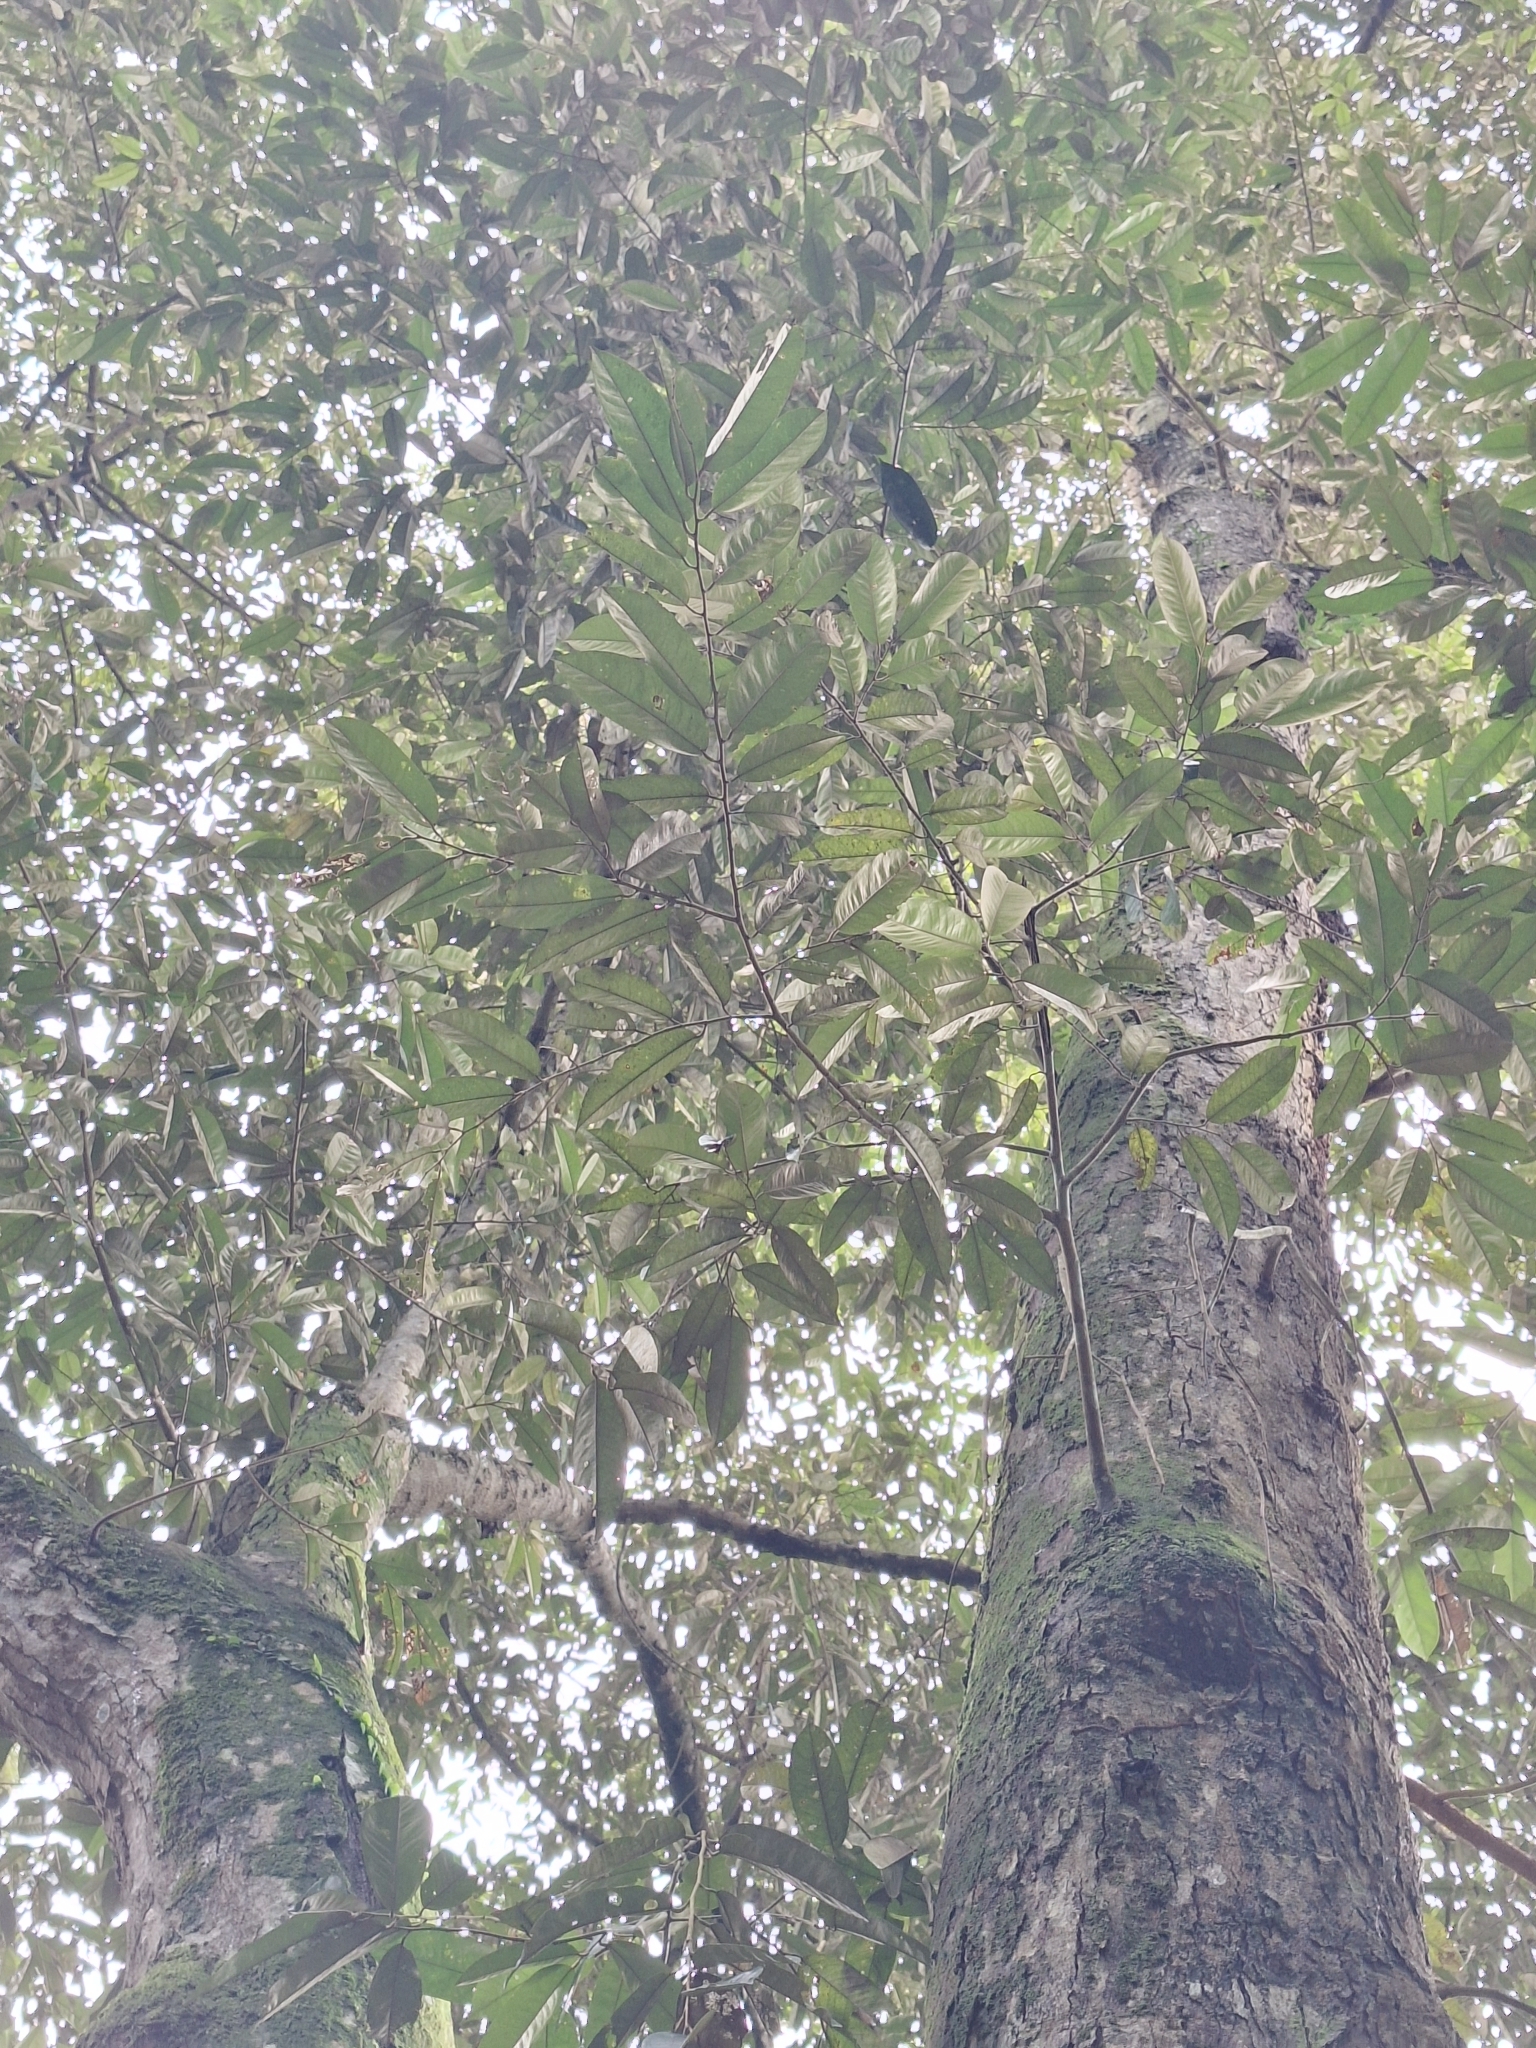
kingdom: Plantae
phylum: Tracheophyta
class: Magnoliopsida
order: Malvales
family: Malvaceae
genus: Durio
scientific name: Durio zibethinus
